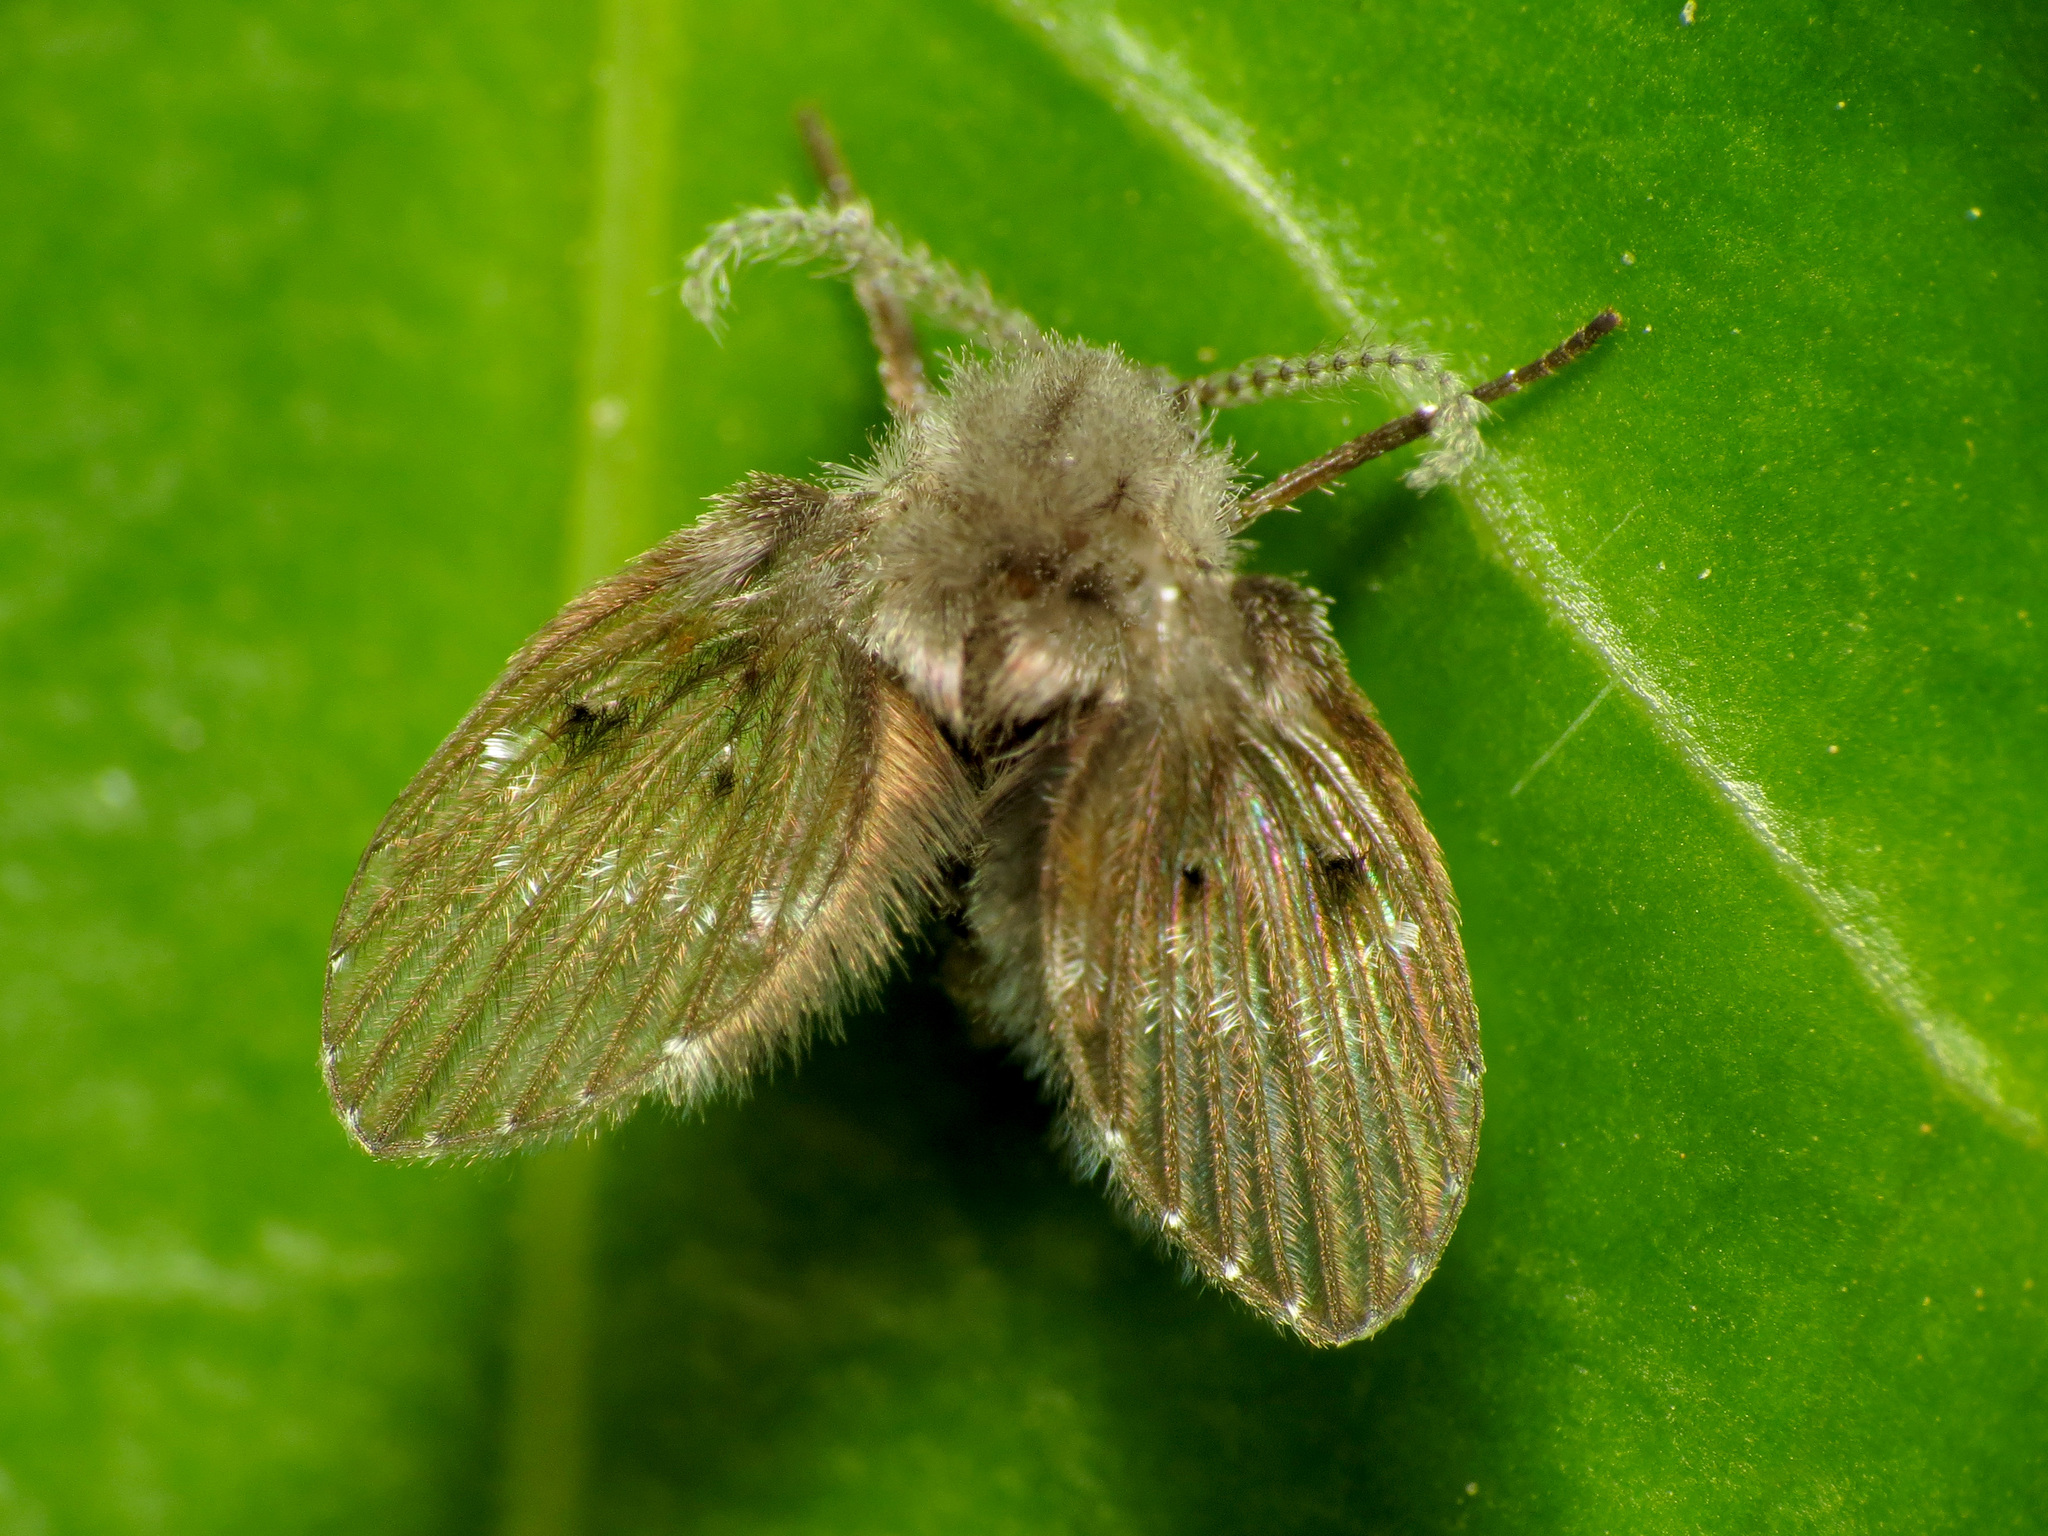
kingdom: Animalia
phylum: Arthropoda
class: Insecta
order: Diptera
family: Psychodidae
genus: Clogmia
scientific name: Clogmia albipunctatus
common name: White-spotted moth fly
